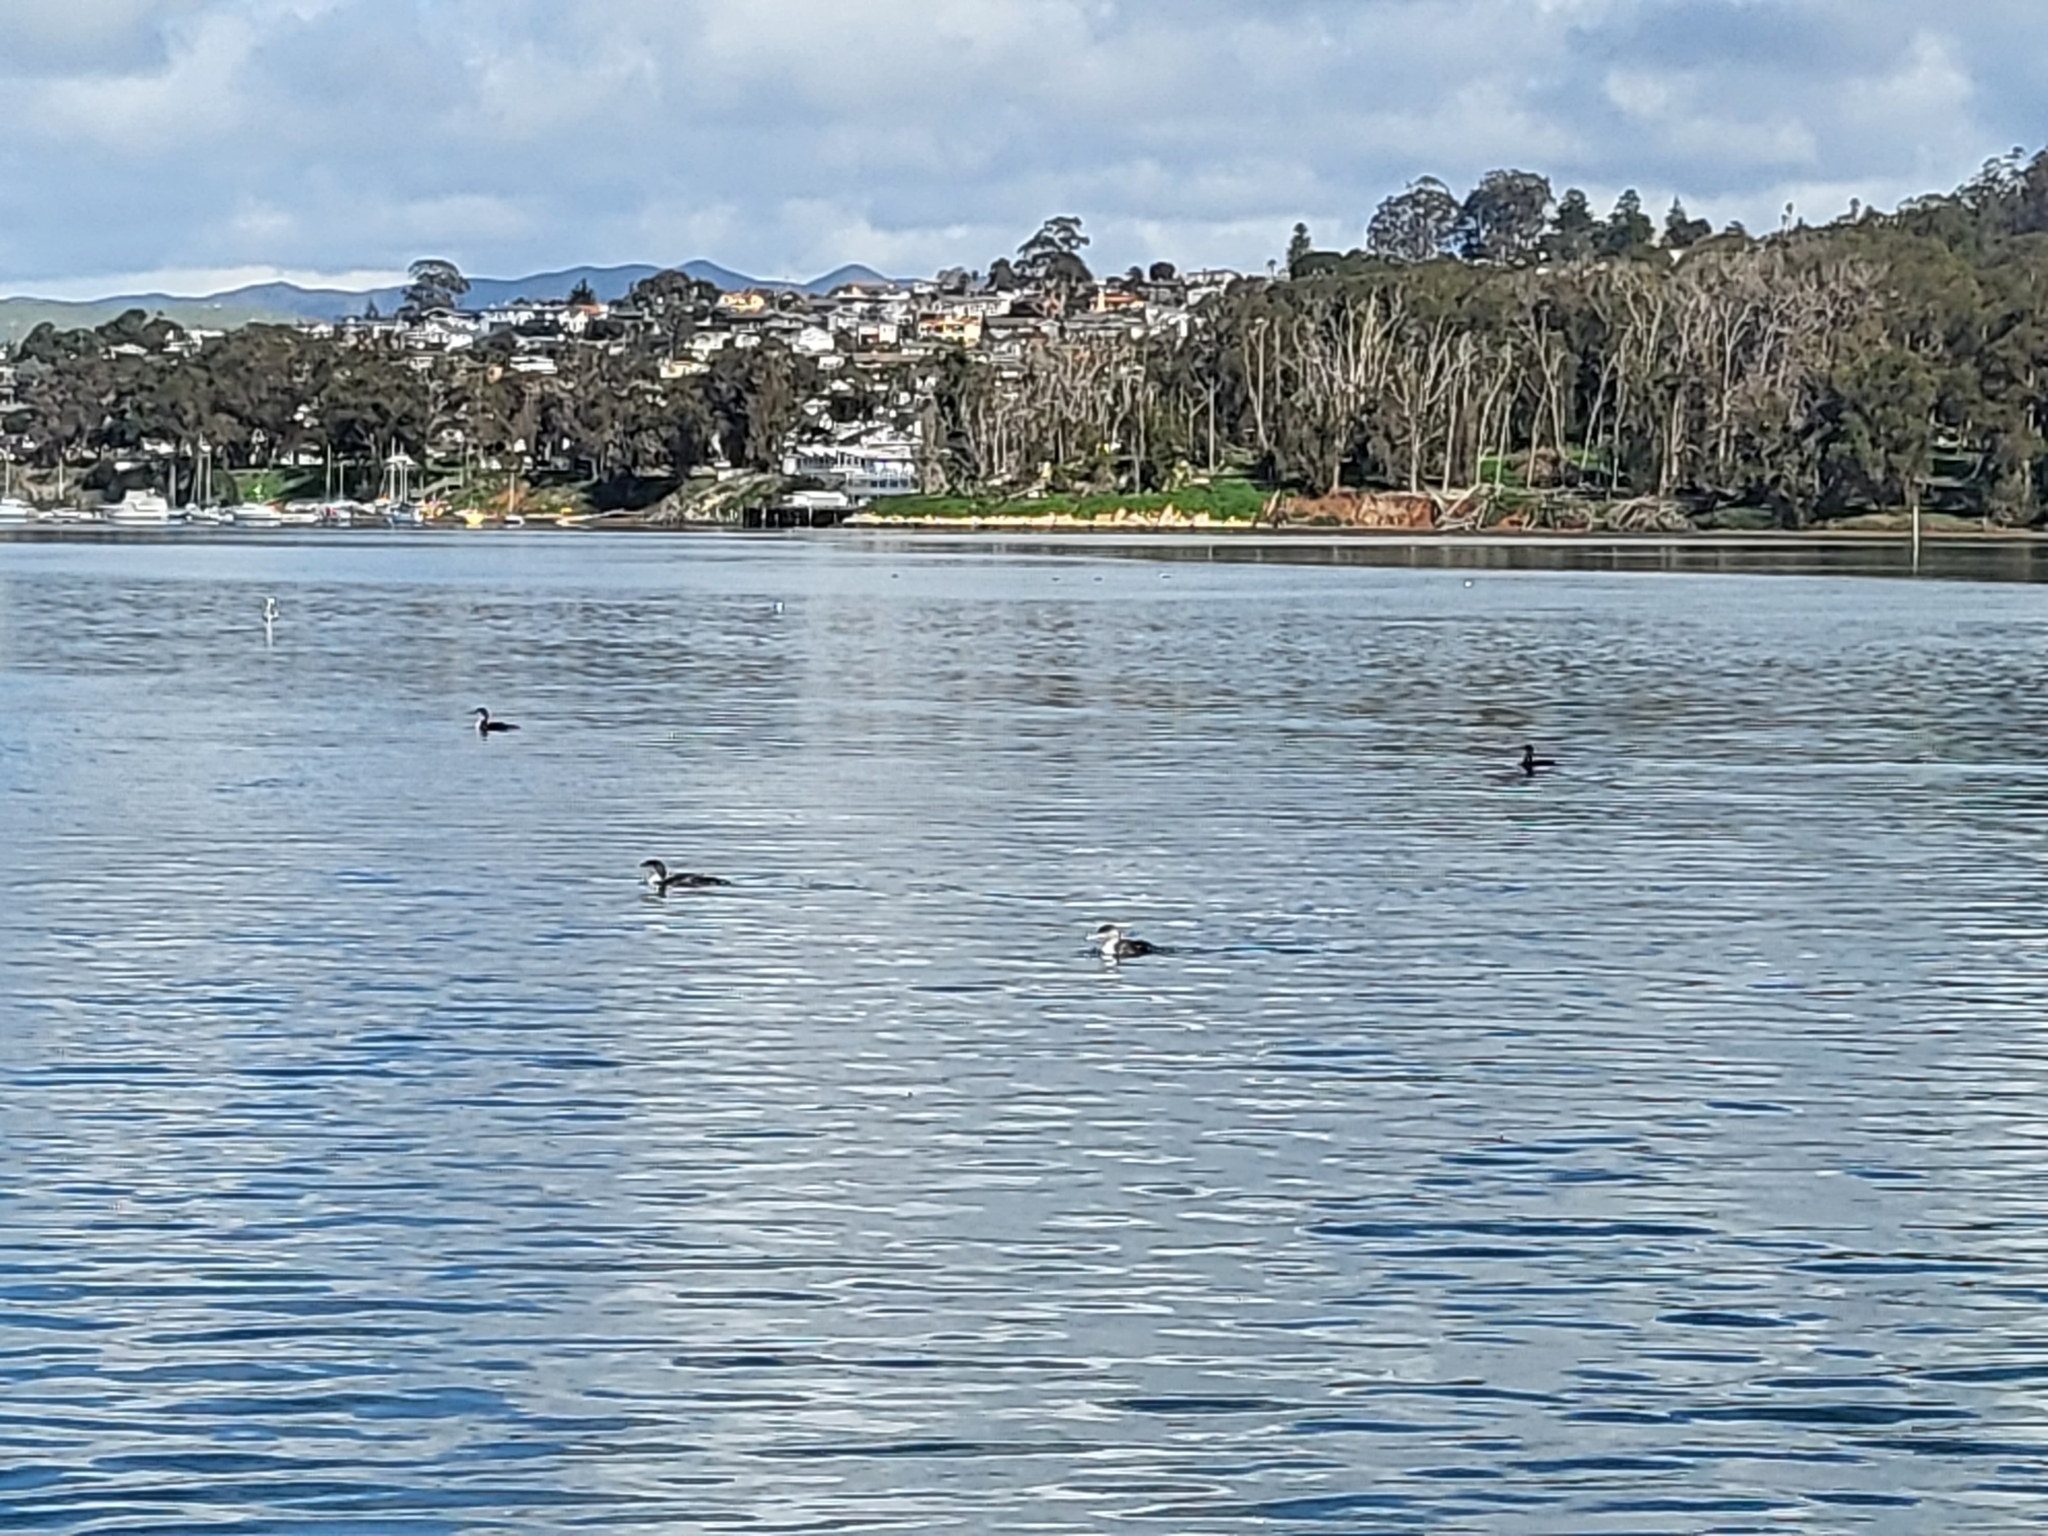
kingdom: Animalia
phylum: Chordata
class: Aves
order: Gaviiformes
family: Gaviidae
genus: Gavia
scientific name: Gavia immer
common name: Common loon
